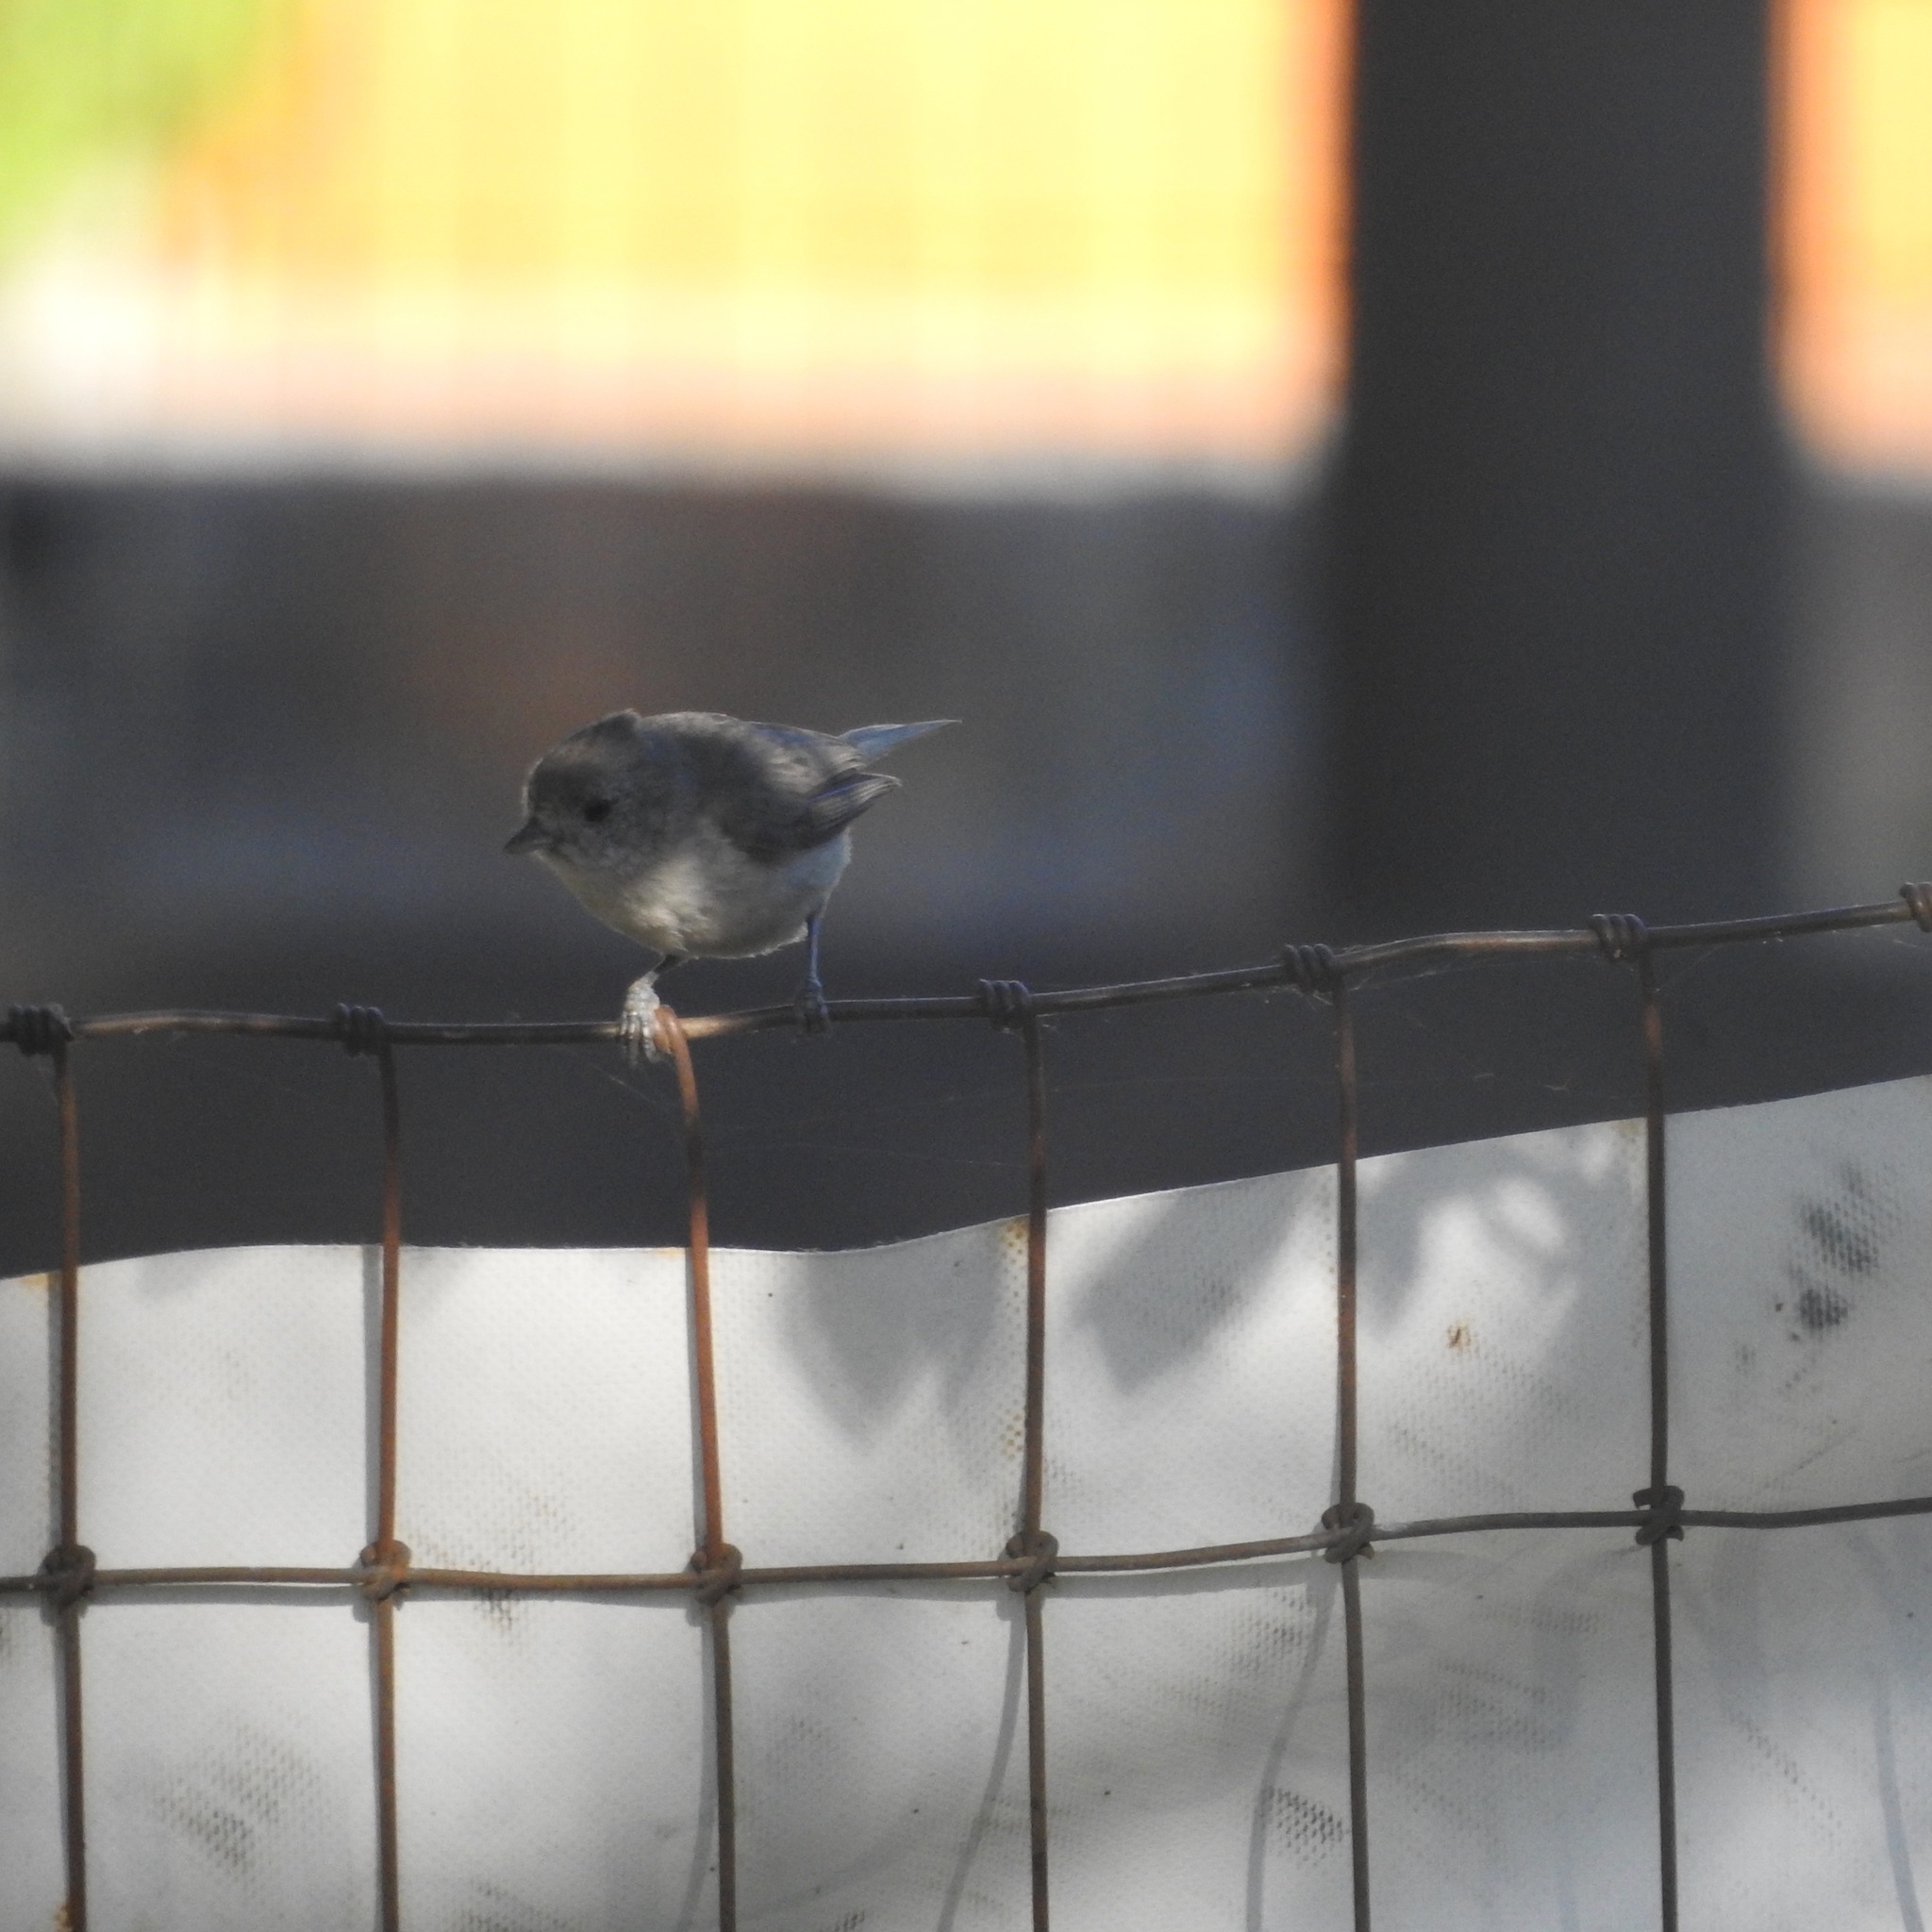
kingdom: Animalia
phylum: Chordata
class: Aves
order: Passeriformes
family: Paridae
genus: Baeolophus
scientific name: Baeolophus inornatus
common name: Oak titmouse
